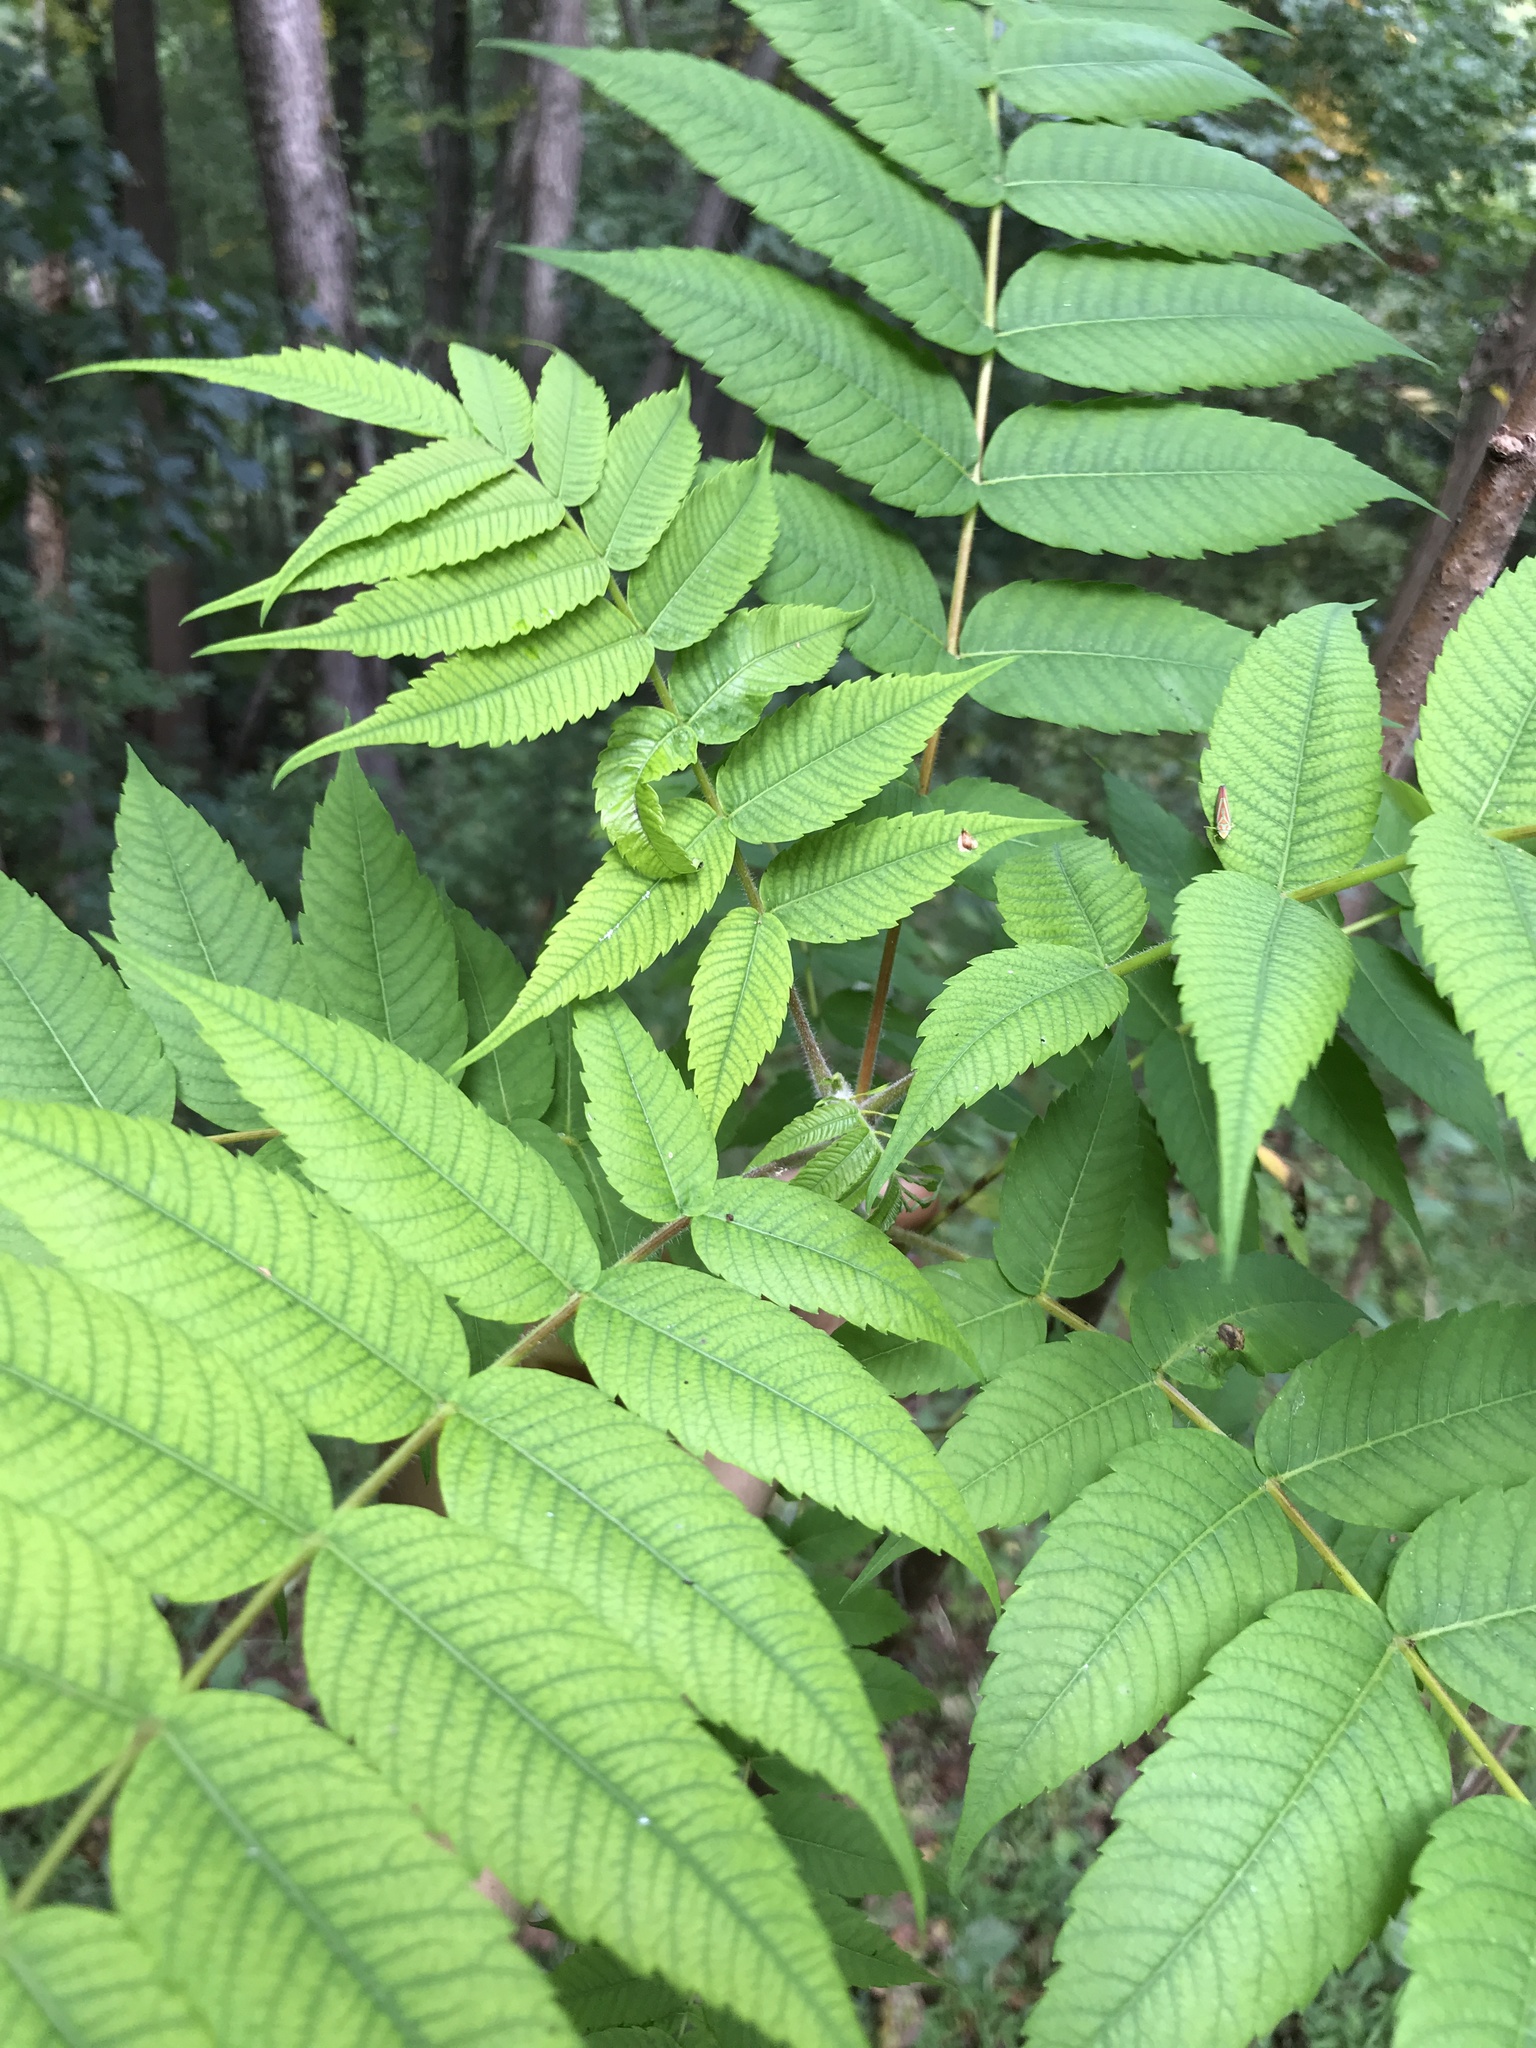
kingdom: Plantae
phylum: Tracheophyta
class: Magnoliopsida
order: Sapindales
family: Anacardiaceae
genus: Rhus
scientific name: Rhus typhina
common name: Staghorn sumac
